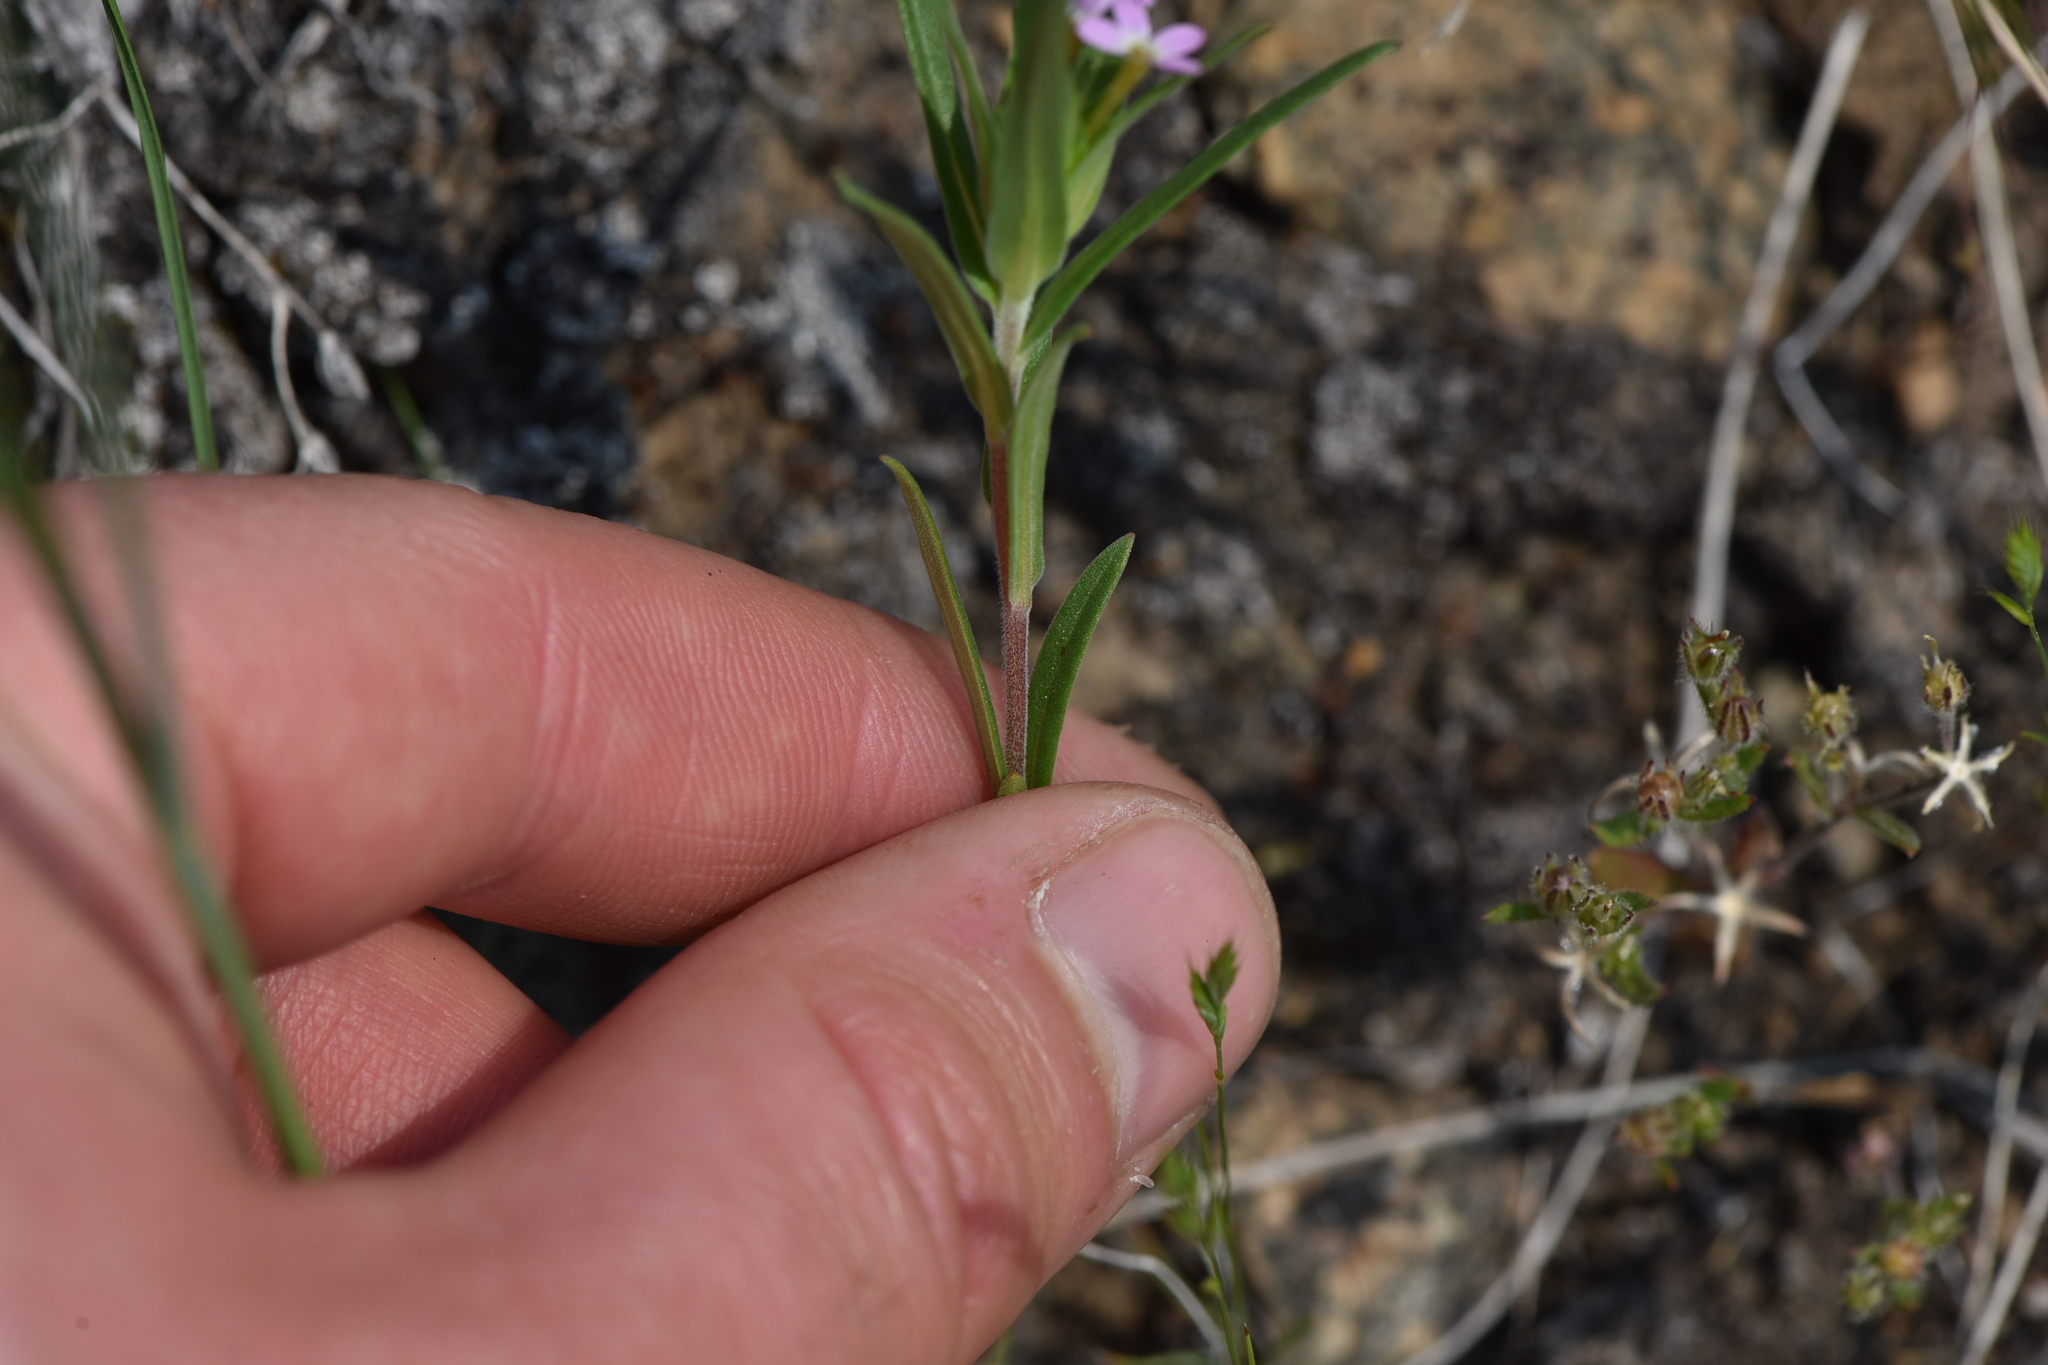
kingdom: Plantae
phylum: Tracheophyta
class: Magnoliopsida
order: Ericales
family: Polemoniaceae
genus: Collomia
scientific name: Collomia linearis
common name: Tiny trumpet
